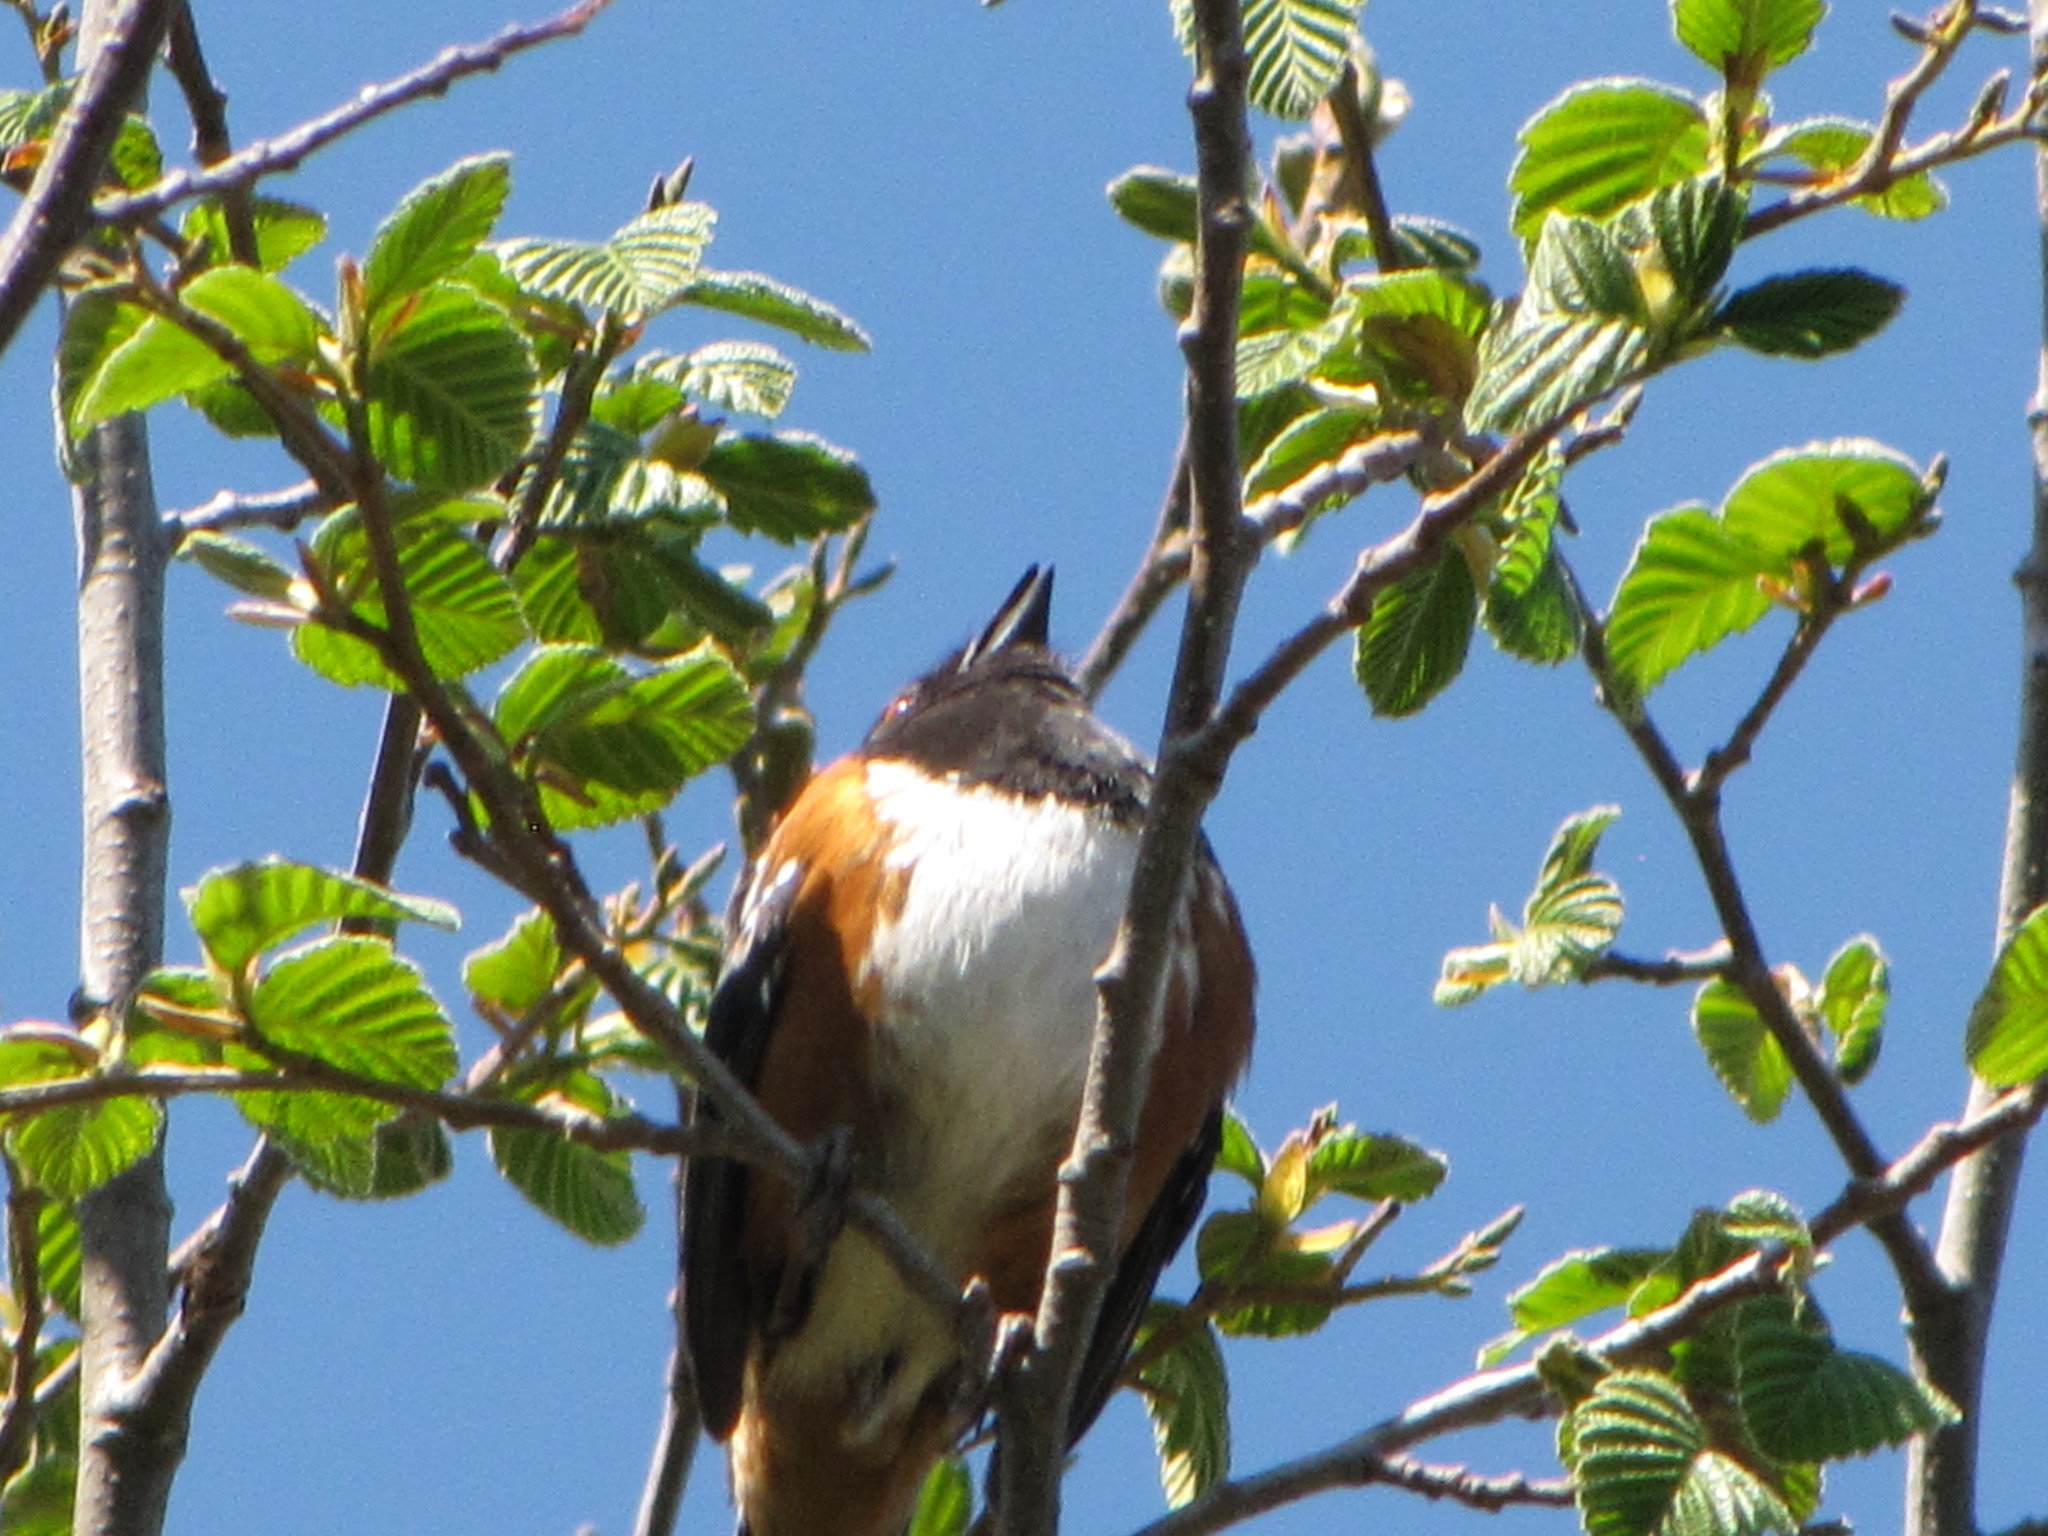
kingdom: Animalia
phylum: Chordata
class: Aves
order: Passeriformes
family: Passerellidae
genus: Pipilo
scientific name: Pipilo maculatus
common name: Spotted towhee
